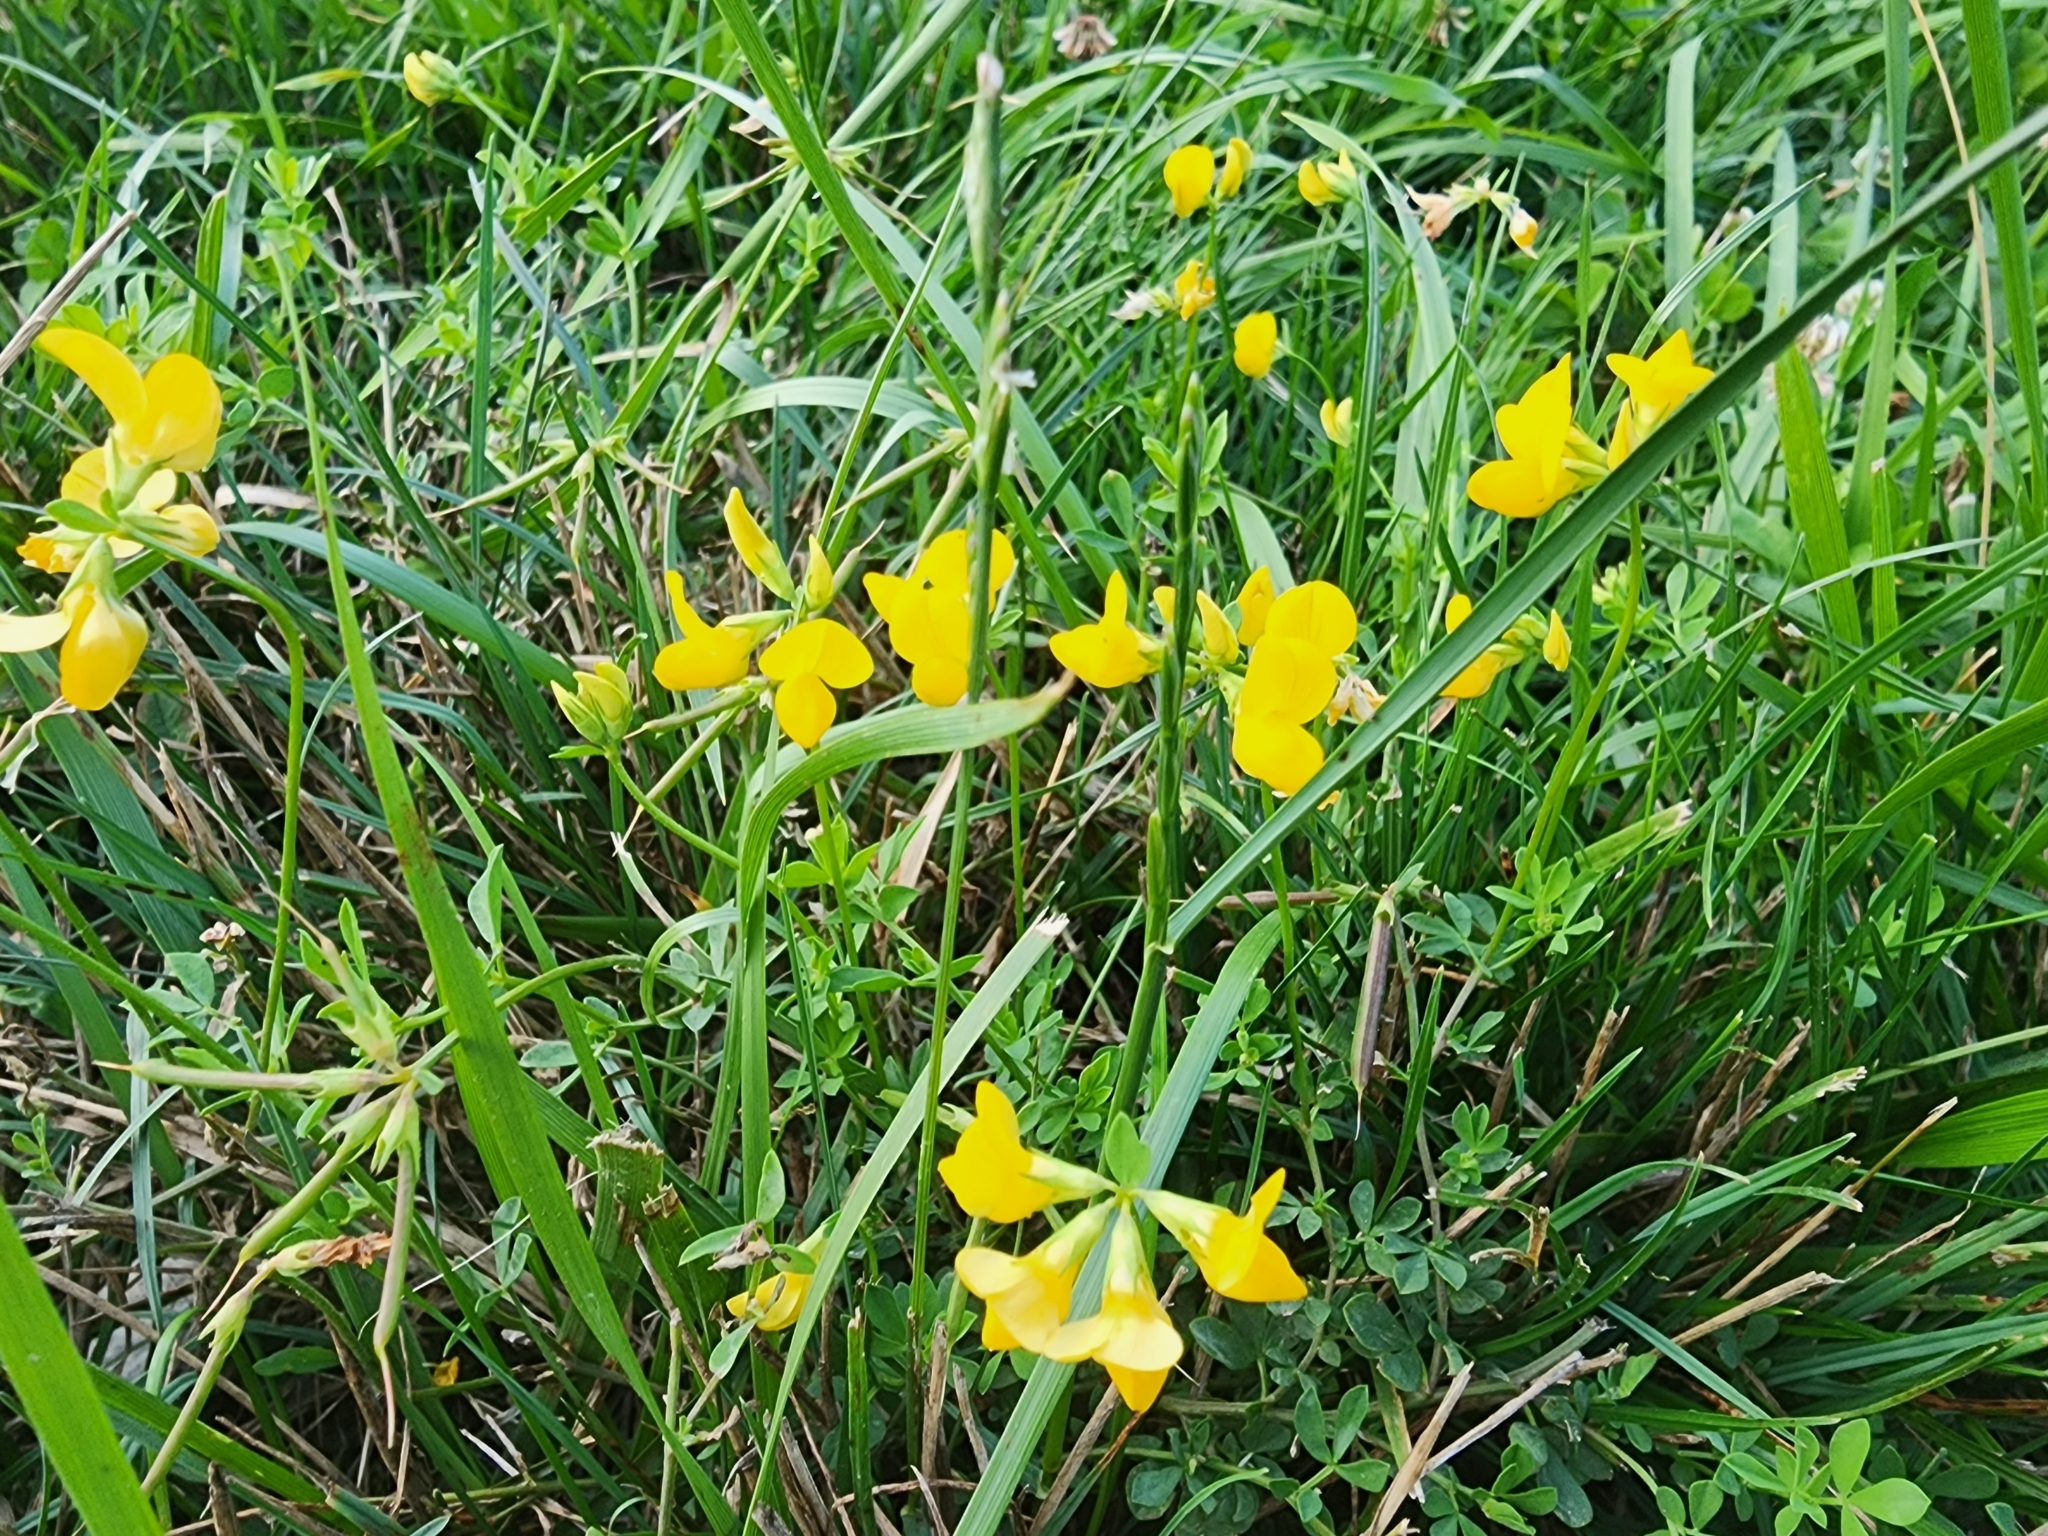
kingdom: Plantae
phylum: Tracheophyta
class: Magnoliopsida
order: Fabales
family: Fabaceae
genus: Lotus
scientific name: Lotus corniculatus
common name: Common bird's-foot-trefoil
